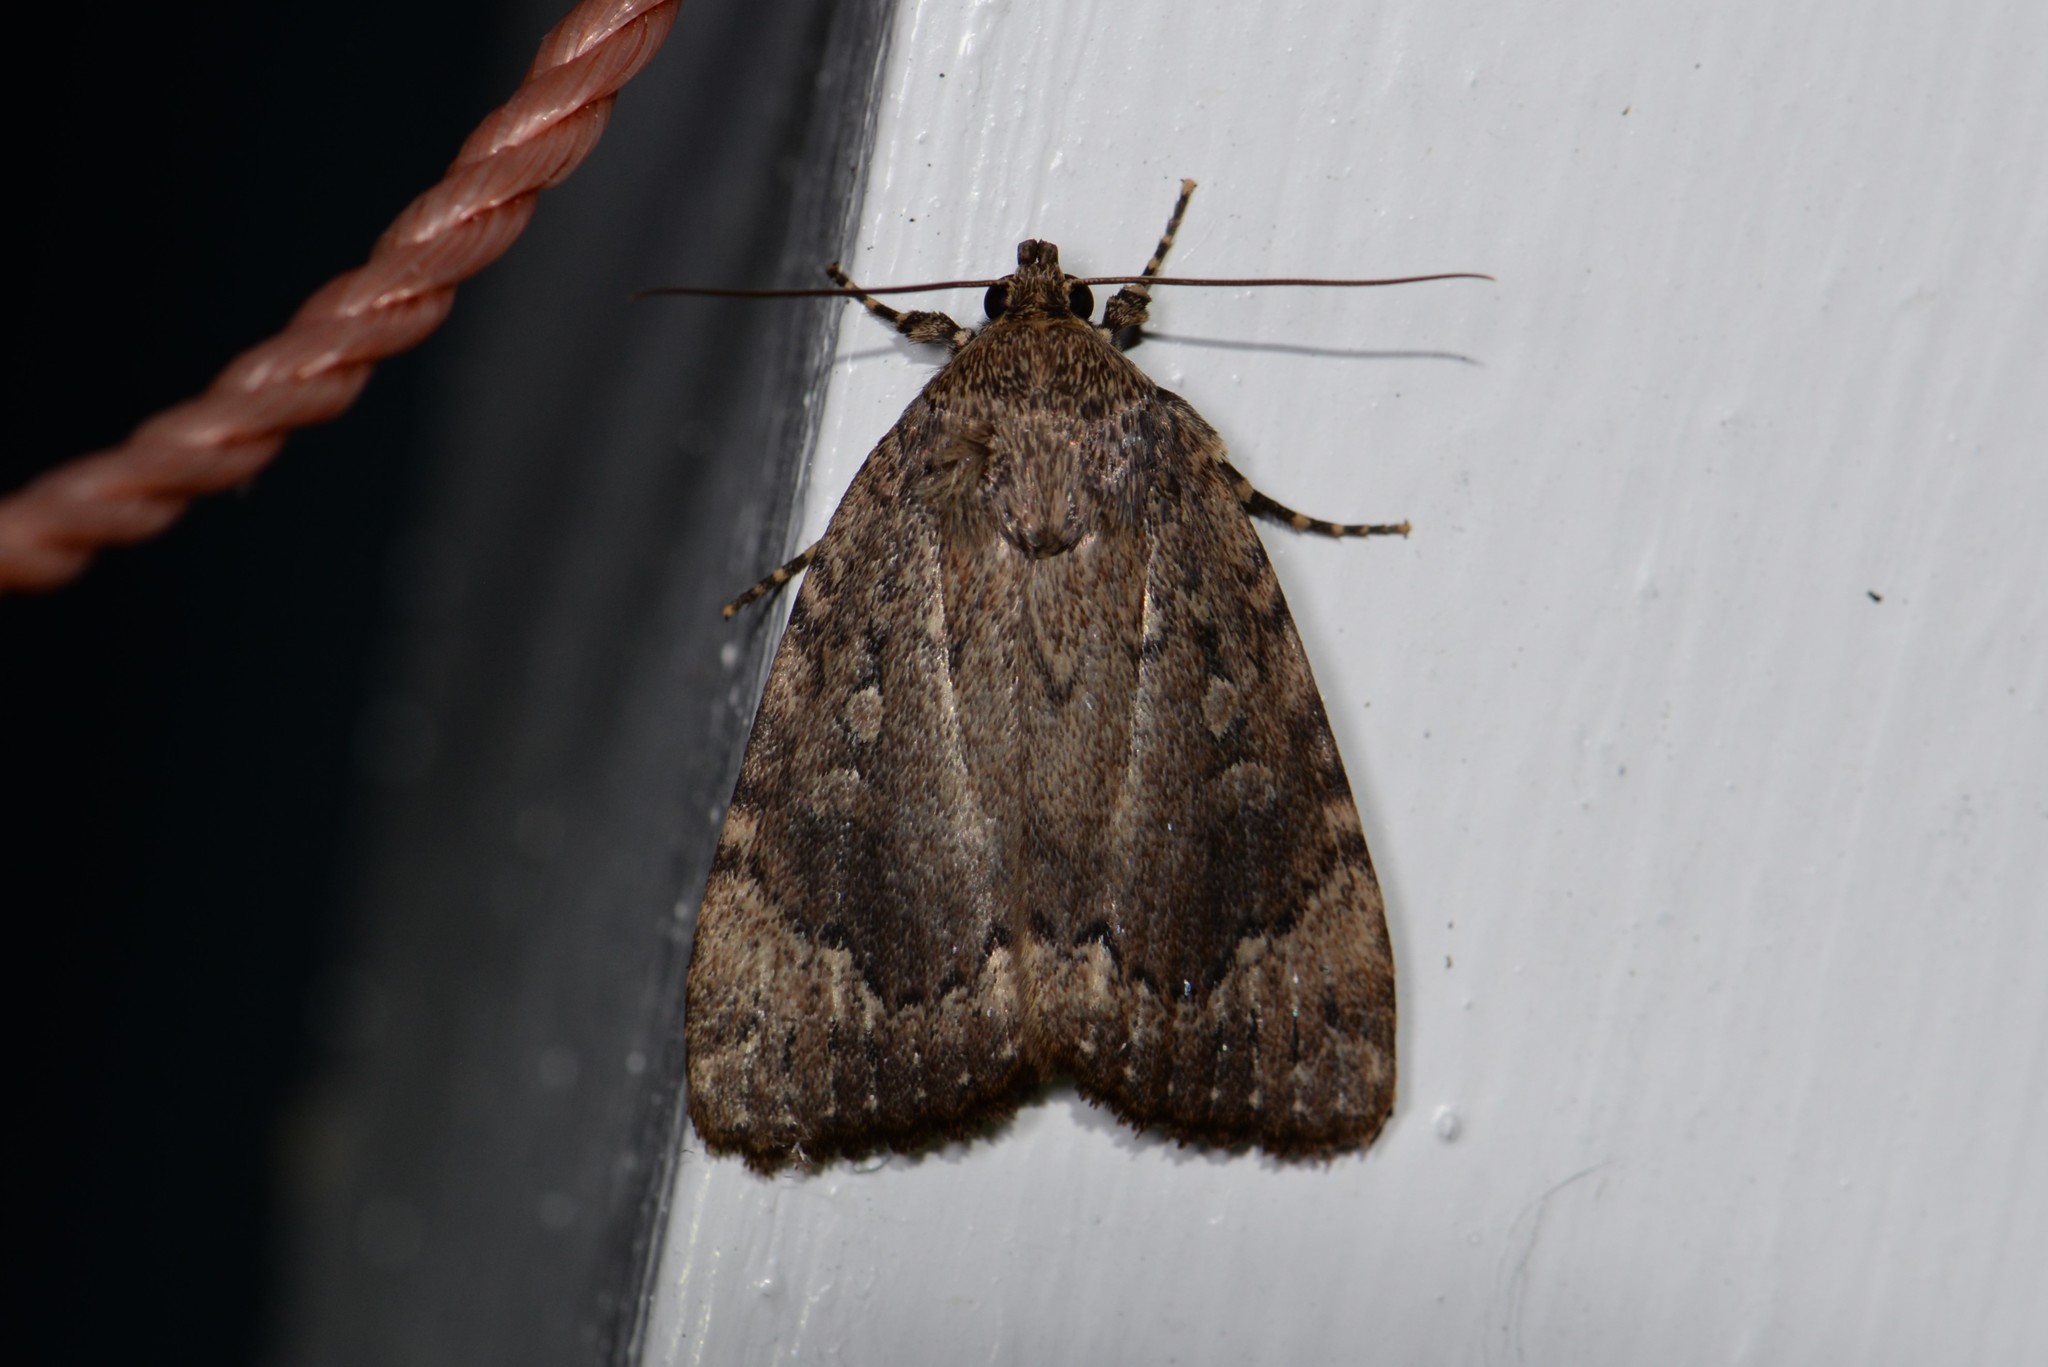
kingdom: Animalia
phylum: Arthropoda
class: Insecta
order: Lepidoptera
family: Noctuidae
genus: Amphipyra
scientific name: Amphipyra pyramidoides
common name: American copper underwing
